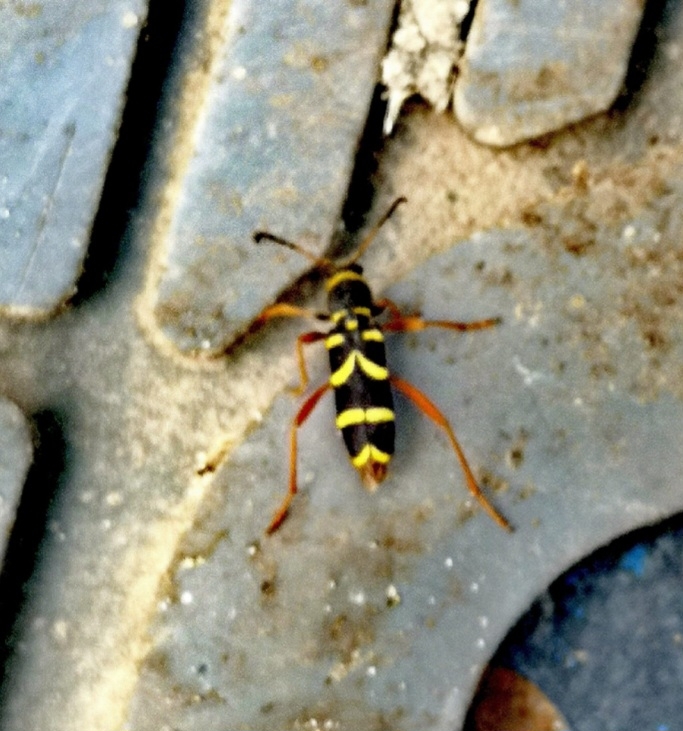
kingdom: Animalia
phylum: Arthropoda
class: Insecta
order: Coleoptera
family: Cerambycidae
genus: Clytus
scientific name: Clytus arietis
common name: Wasp beetle
